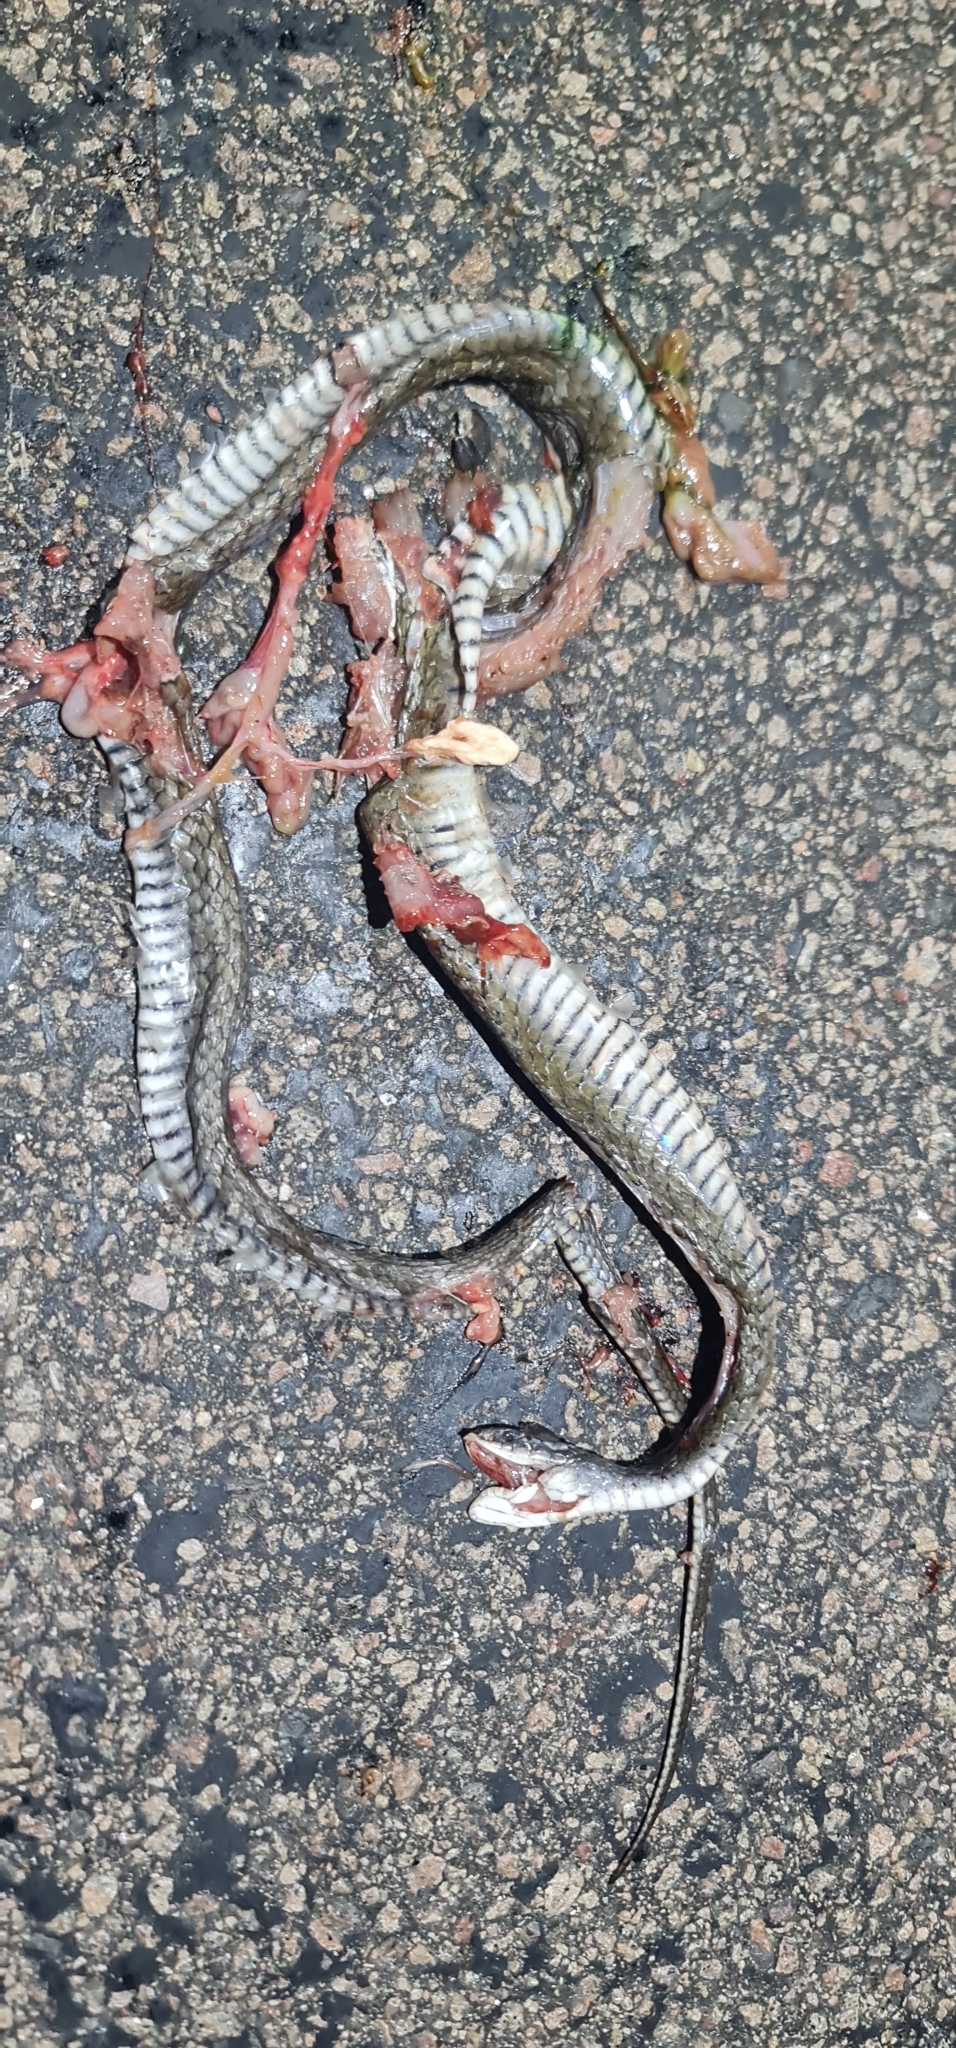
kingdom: Animalia
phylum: Chordata
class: Squamata
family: Colubridae
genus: Tropidonophis
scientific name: Tropidonophis mairii
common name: Common keelback
